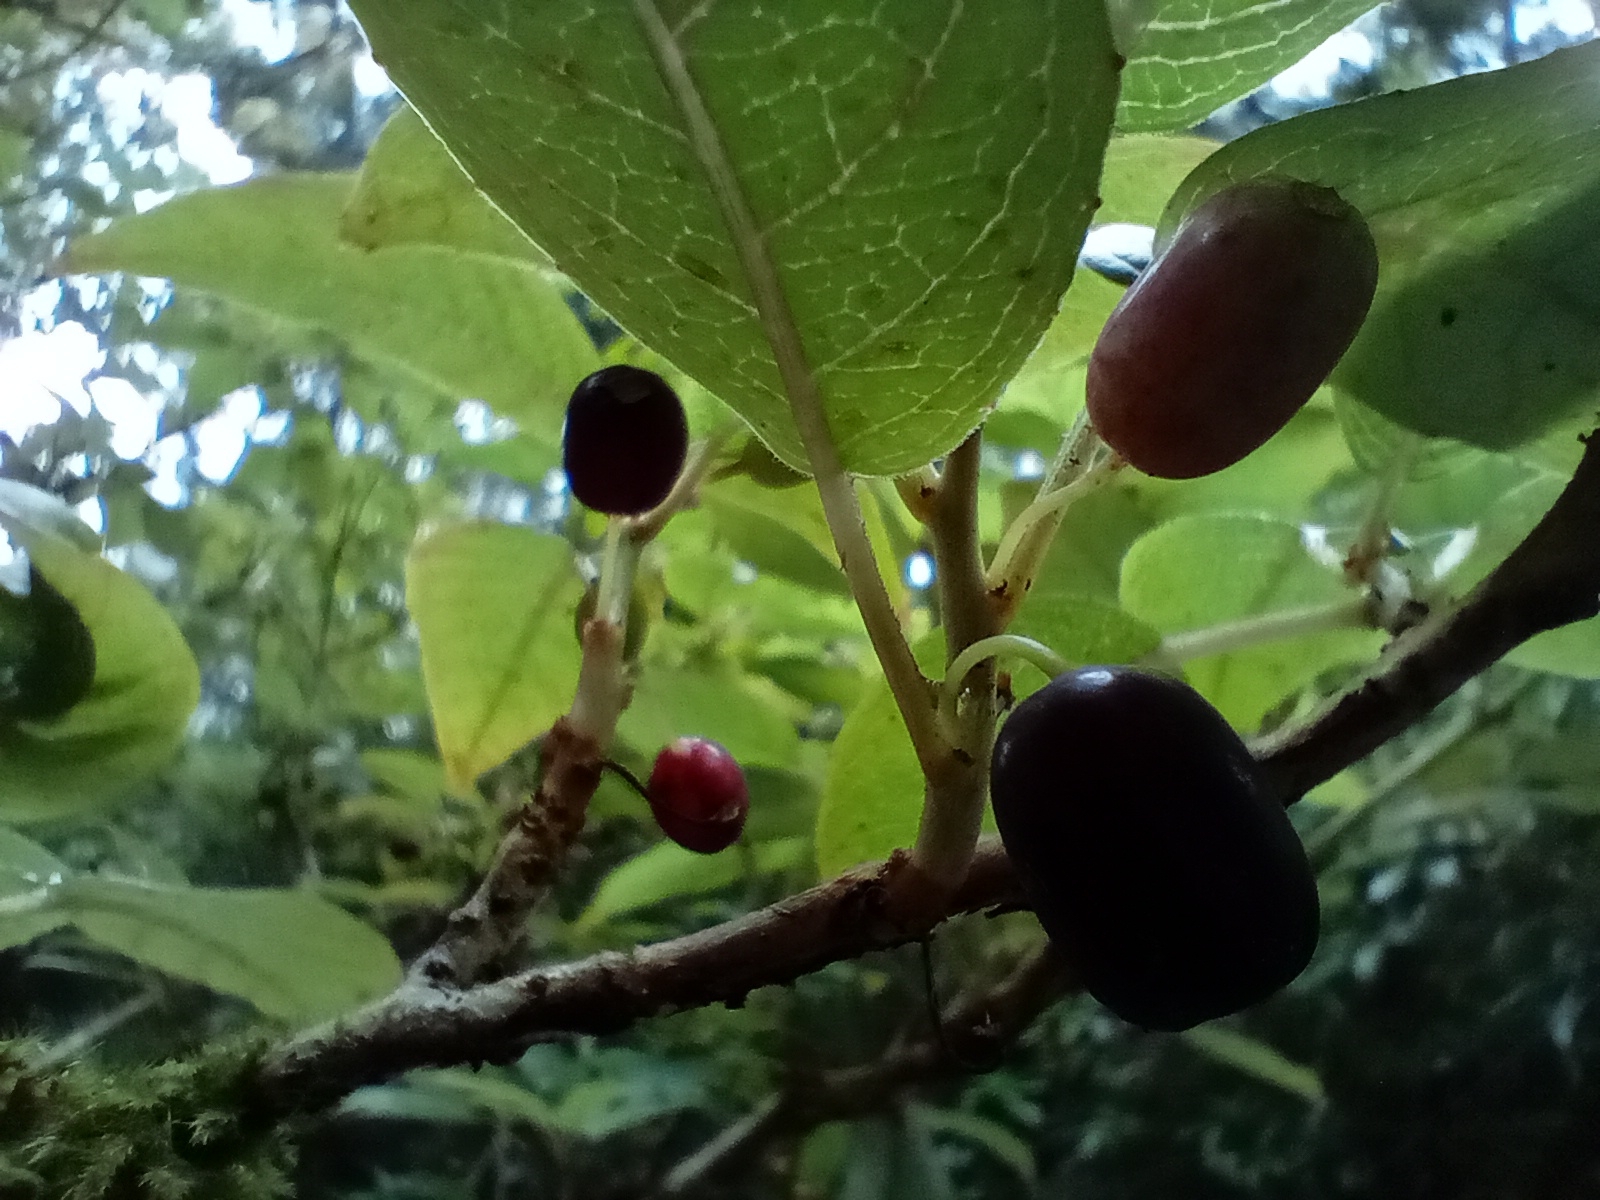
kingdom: Plantae
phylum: Tracheophyta
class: Magnoliopsida
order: Myrtales
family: Onagraceae
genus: Fuchsia
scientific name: Fuchsia excorticata
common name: Tree fuchsia
